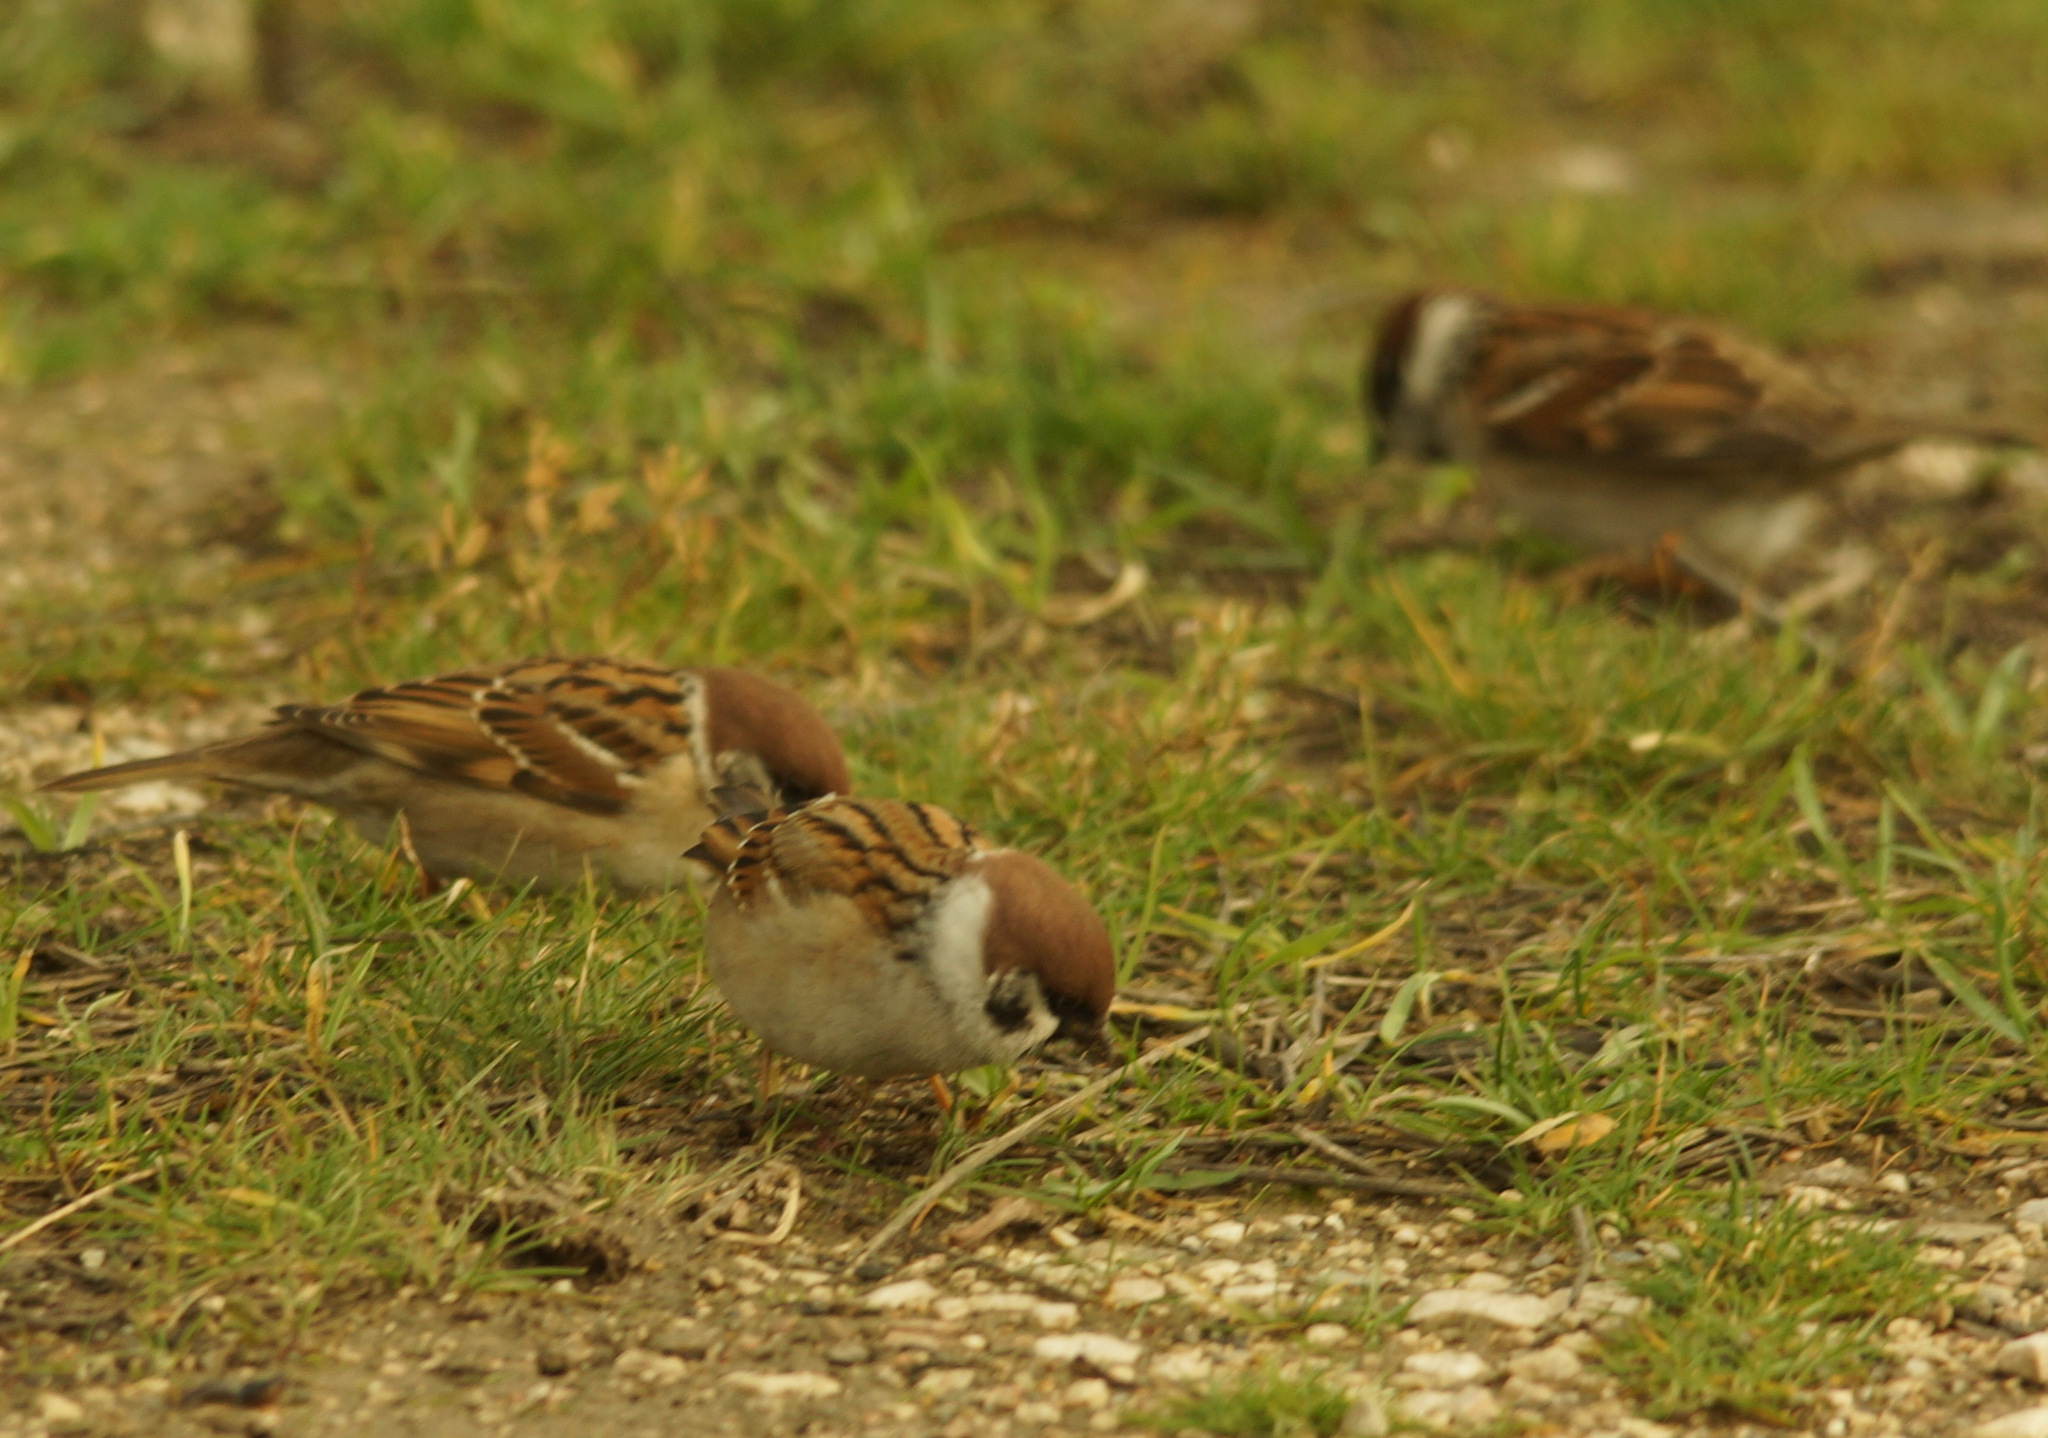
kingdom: Animalia
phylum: Chordata
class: Aves
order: Passeriformes
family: Passeridae
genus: Passer
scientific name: Passer montanus
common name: Eurasian tree sparrow
